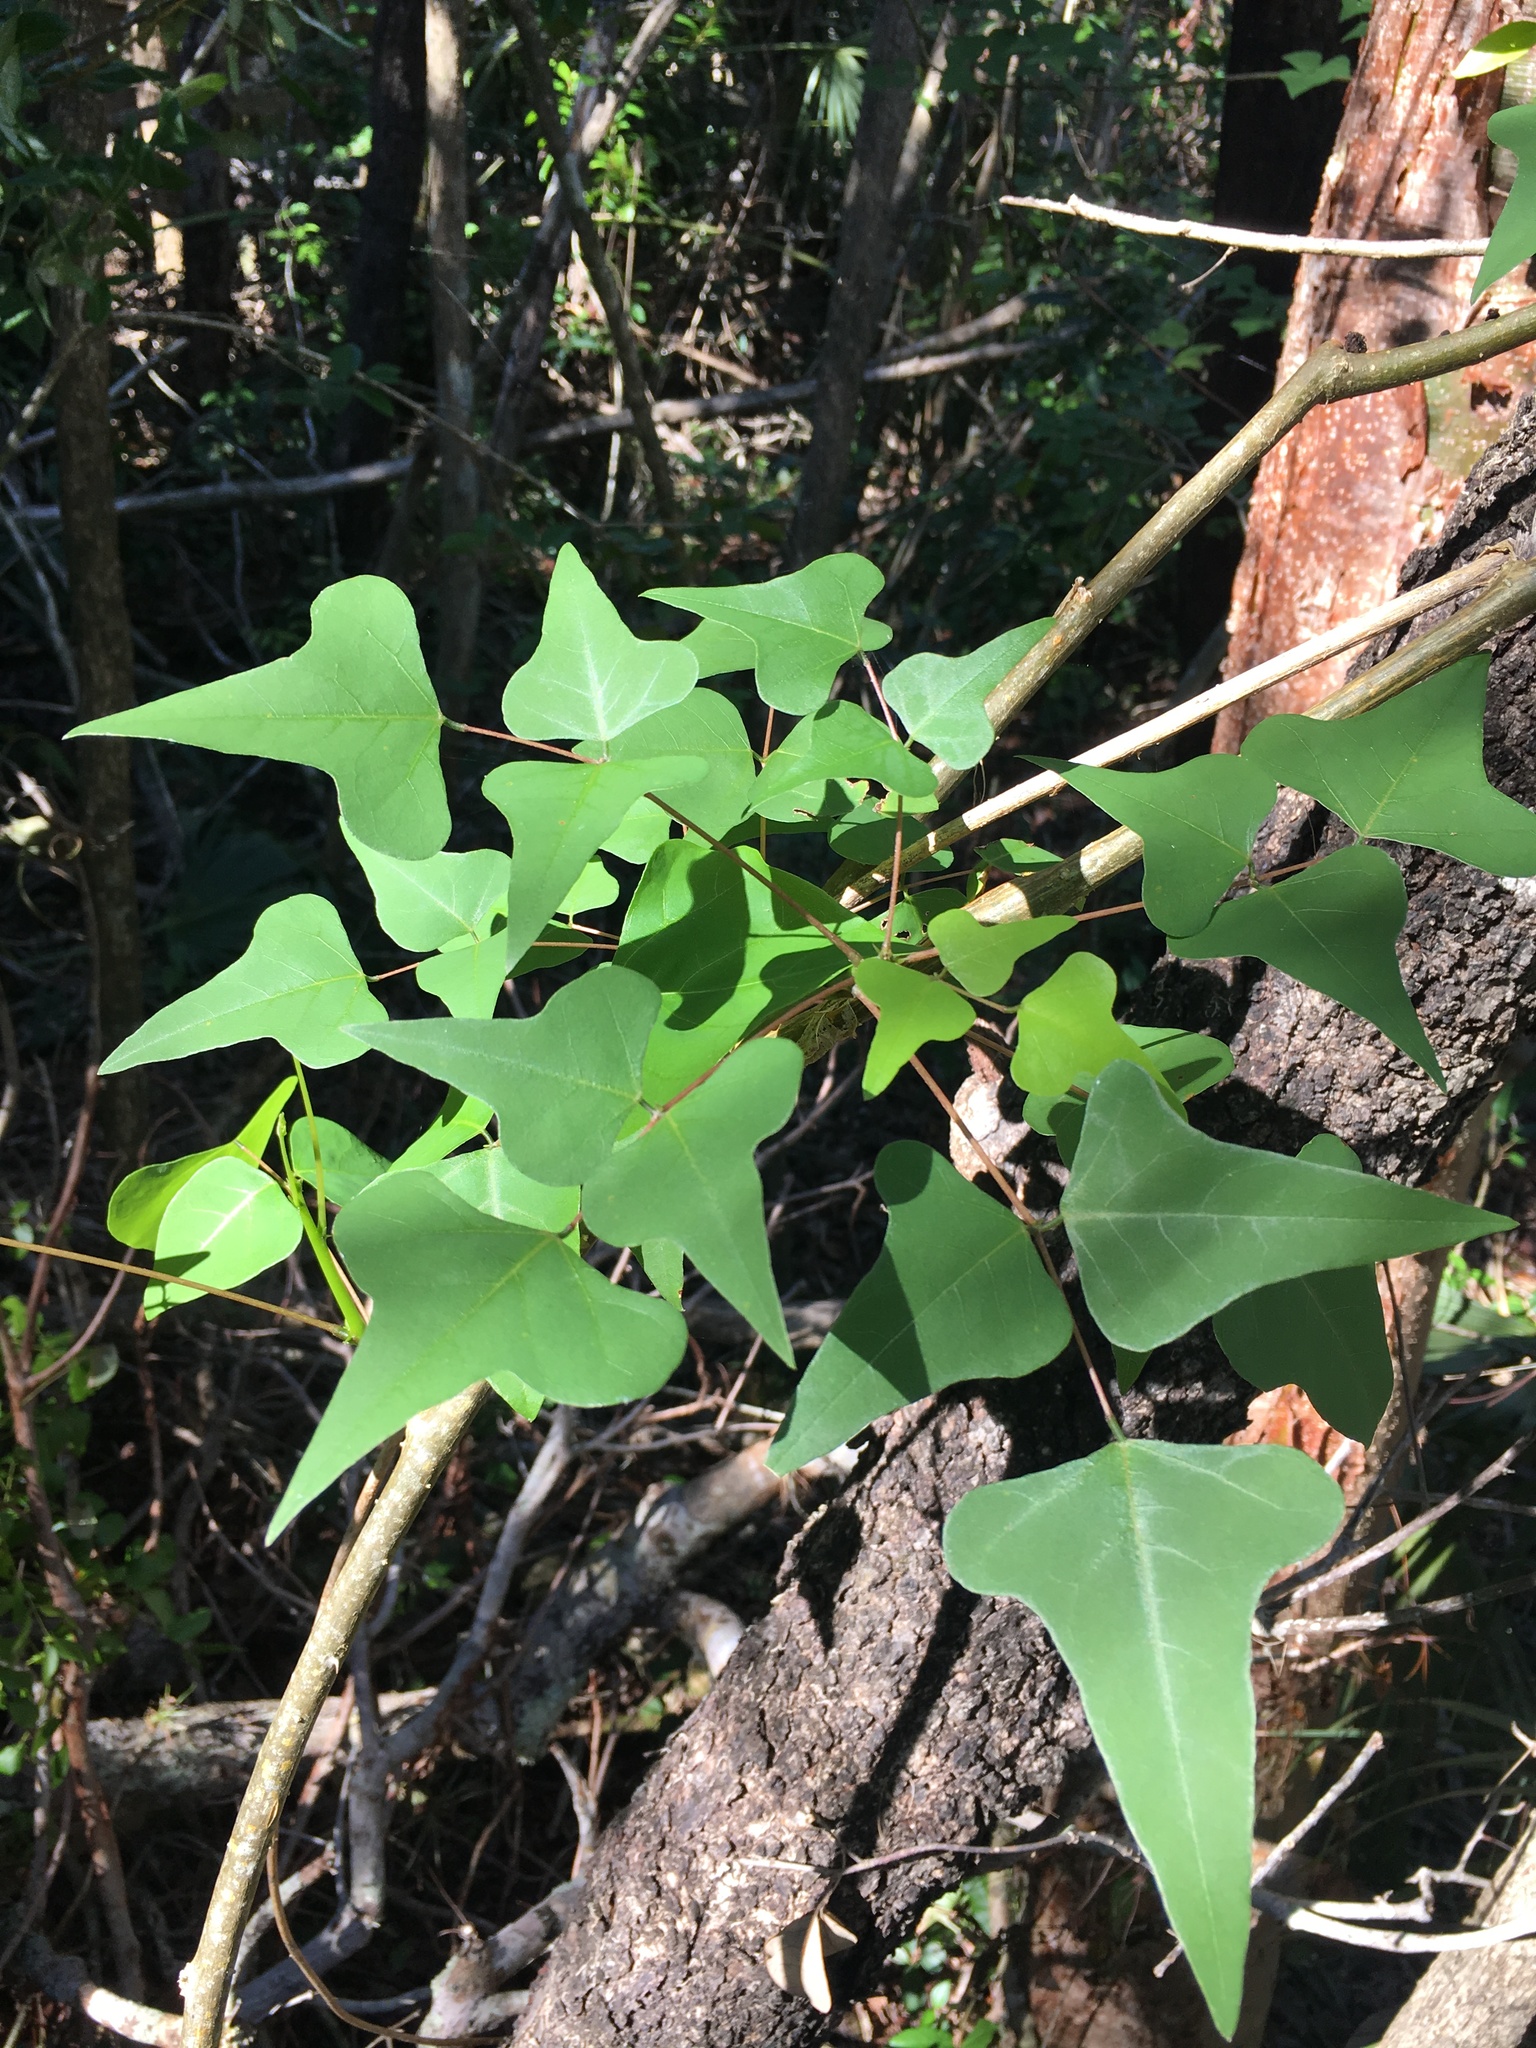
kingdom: Plantae
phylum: Tracheophyta
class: Magnoliopsida
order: Fabales
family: Fabaceae
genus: Erythrina
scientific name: Erythrina herbacea
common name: Coral-bean
